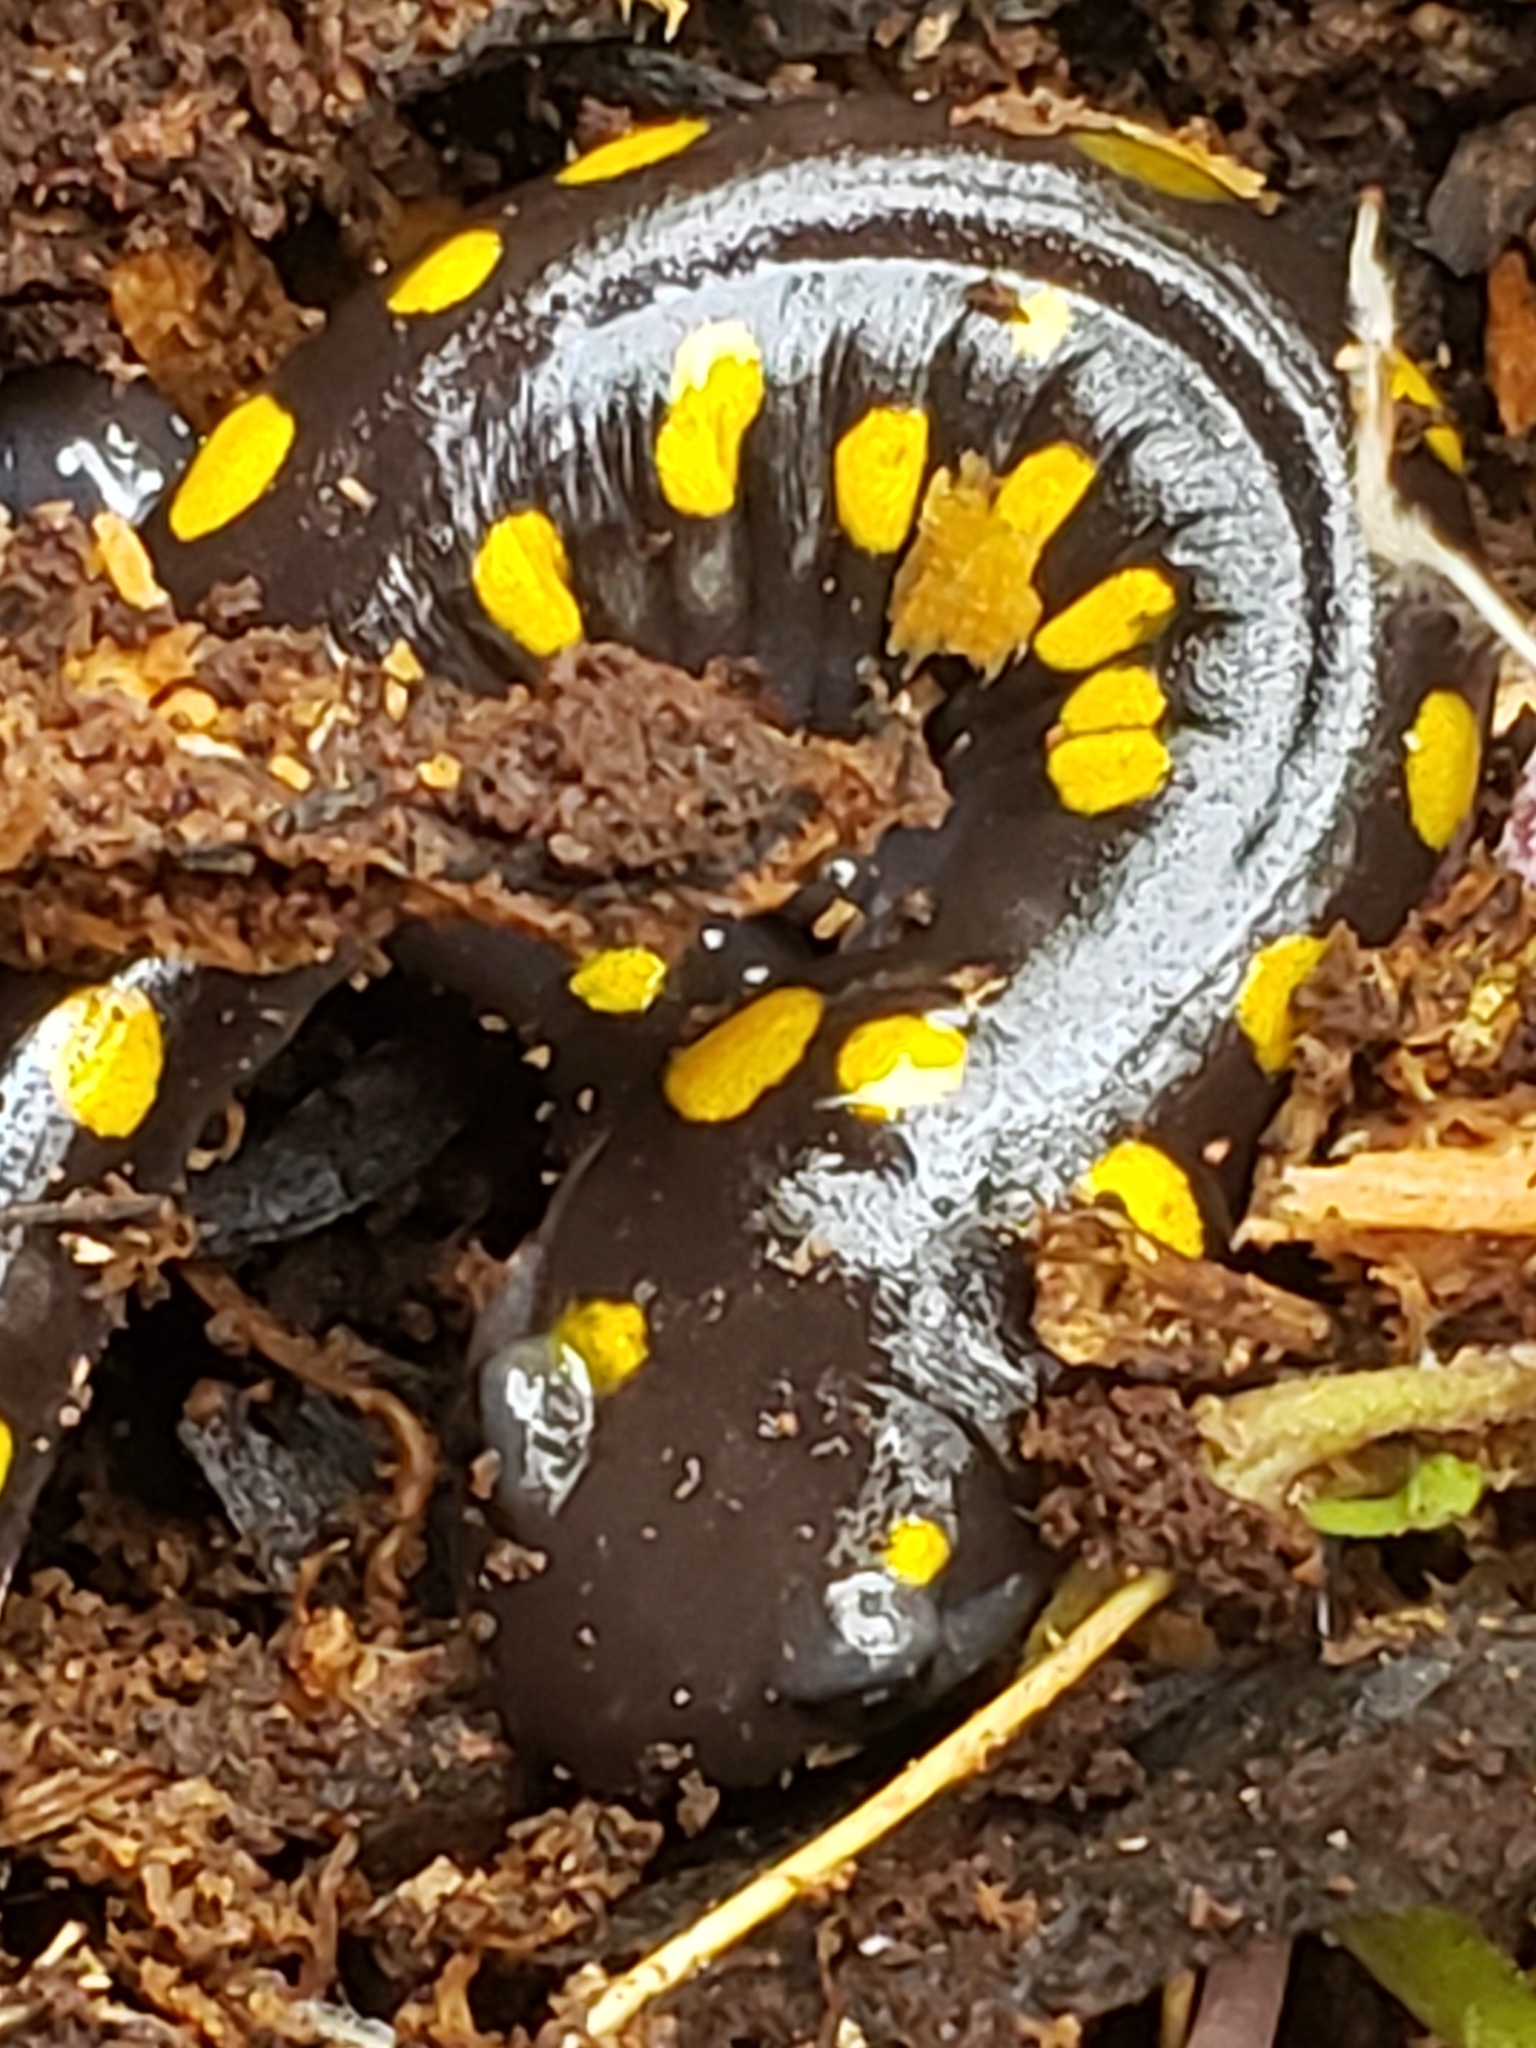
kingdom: Animalia
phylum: Chordata
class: Amphibia
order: Caudata
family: Ambystomatidae
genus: Ambystoma
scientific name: Ambystoma maculatum
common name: Spotted salamander
